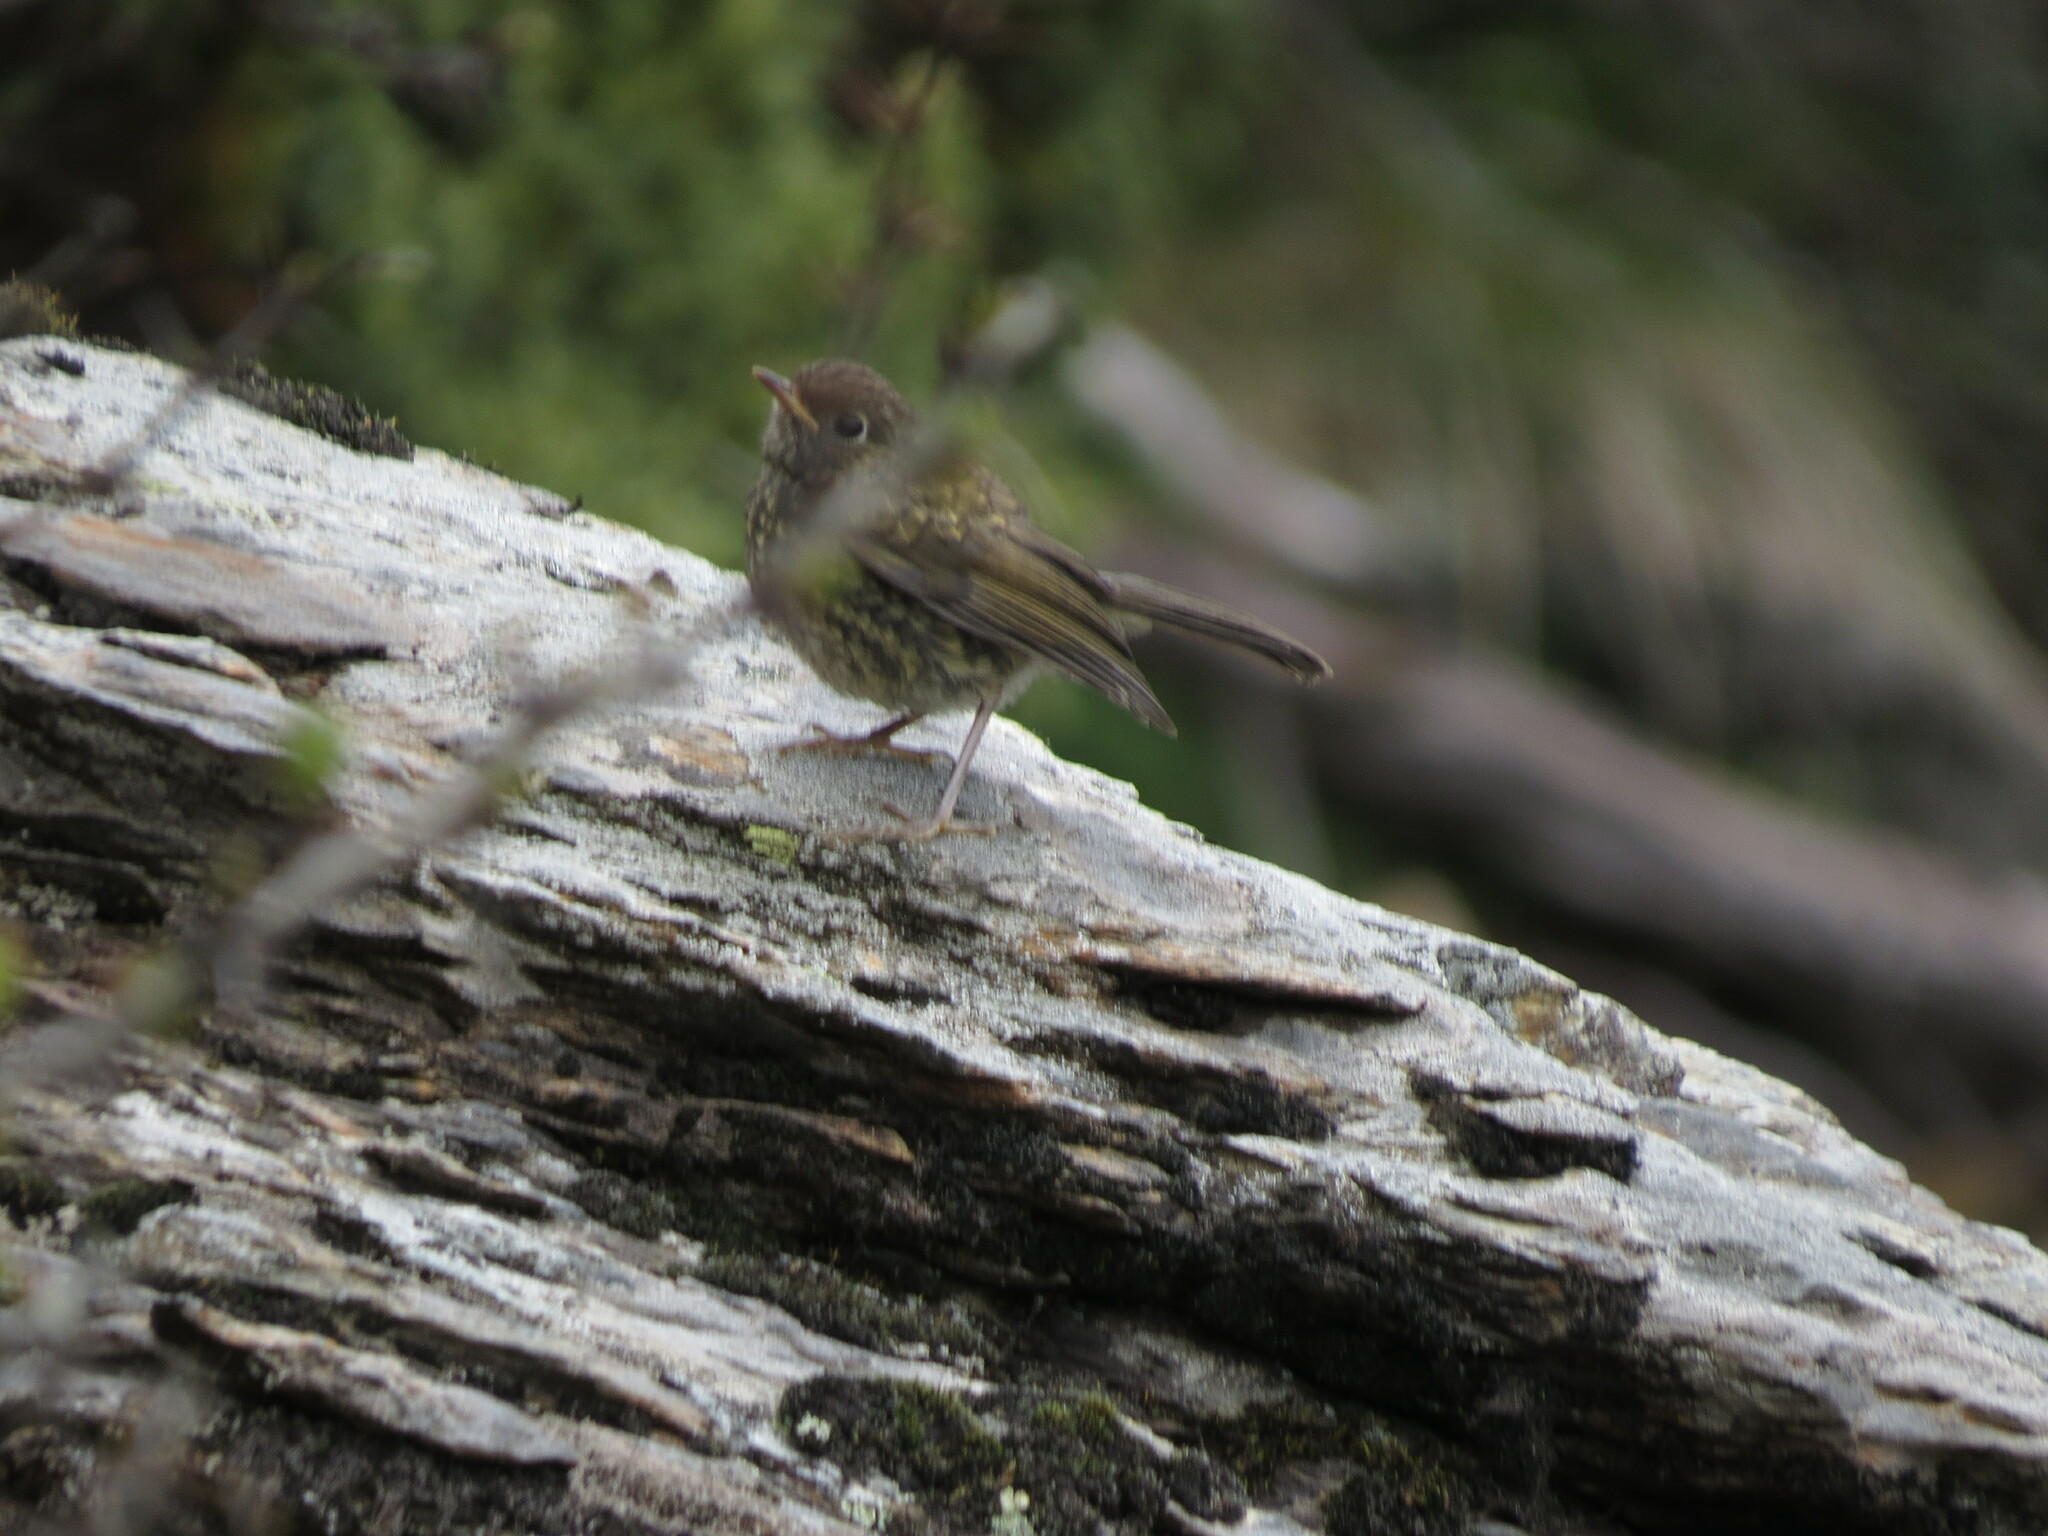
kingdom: Animalia
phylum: Chordata
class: Aves
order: Passeriformes
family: Muscicapidae
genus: Tarsiger
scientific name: Tarsiger indicus
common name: White-browed bush robin
